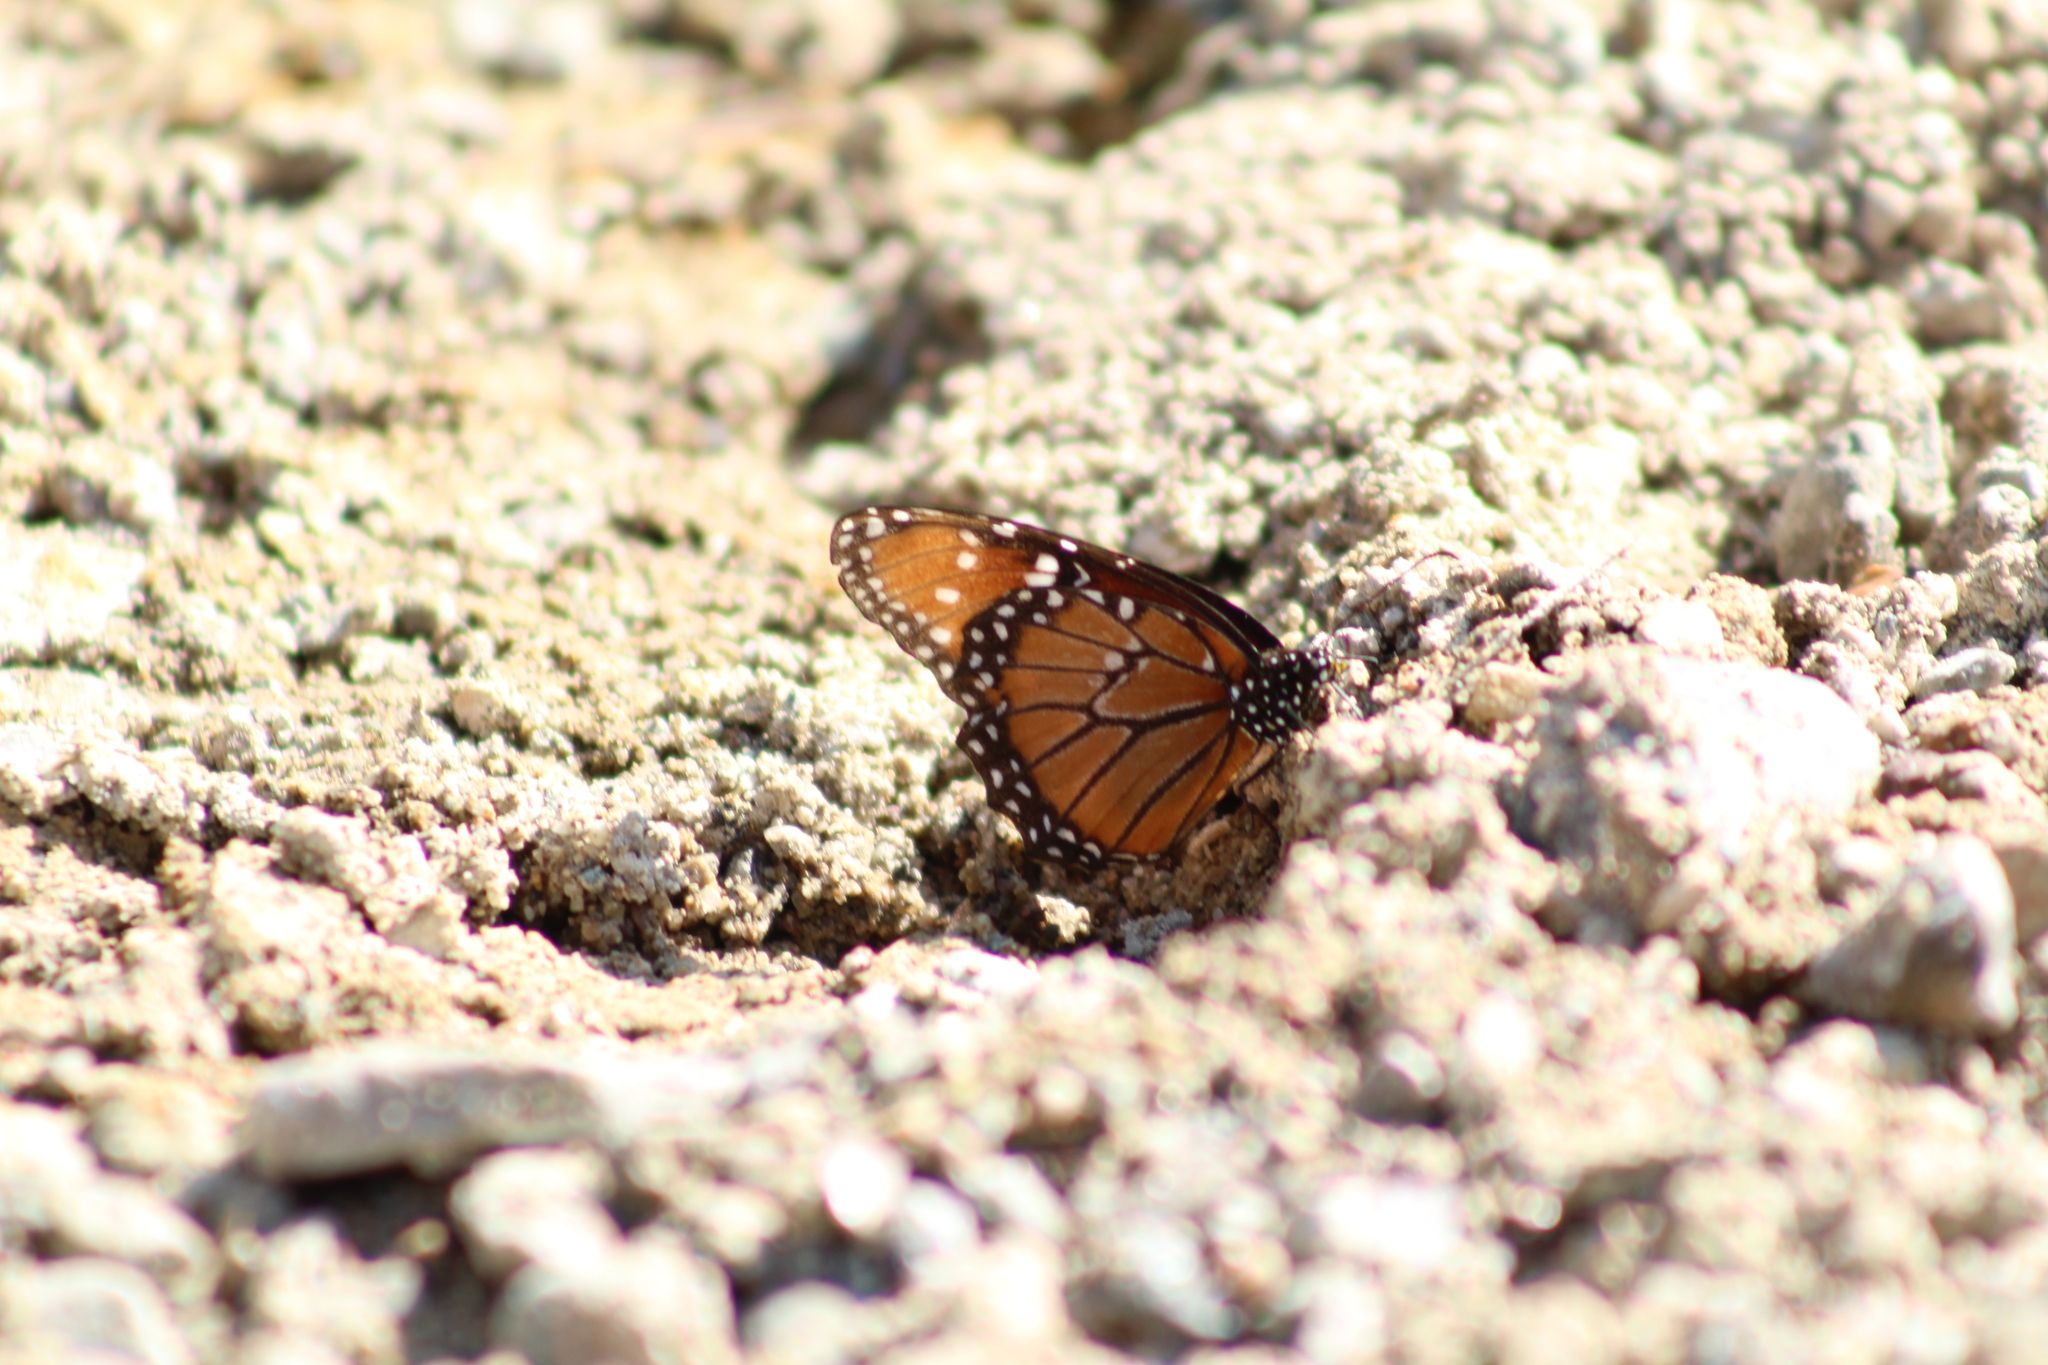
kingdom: Animalia
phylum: Arthropoda
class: Insecta
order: Lepidoptera
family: Nymphalidae
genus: Danaus
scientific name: Danaus gilippus
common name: Queen
